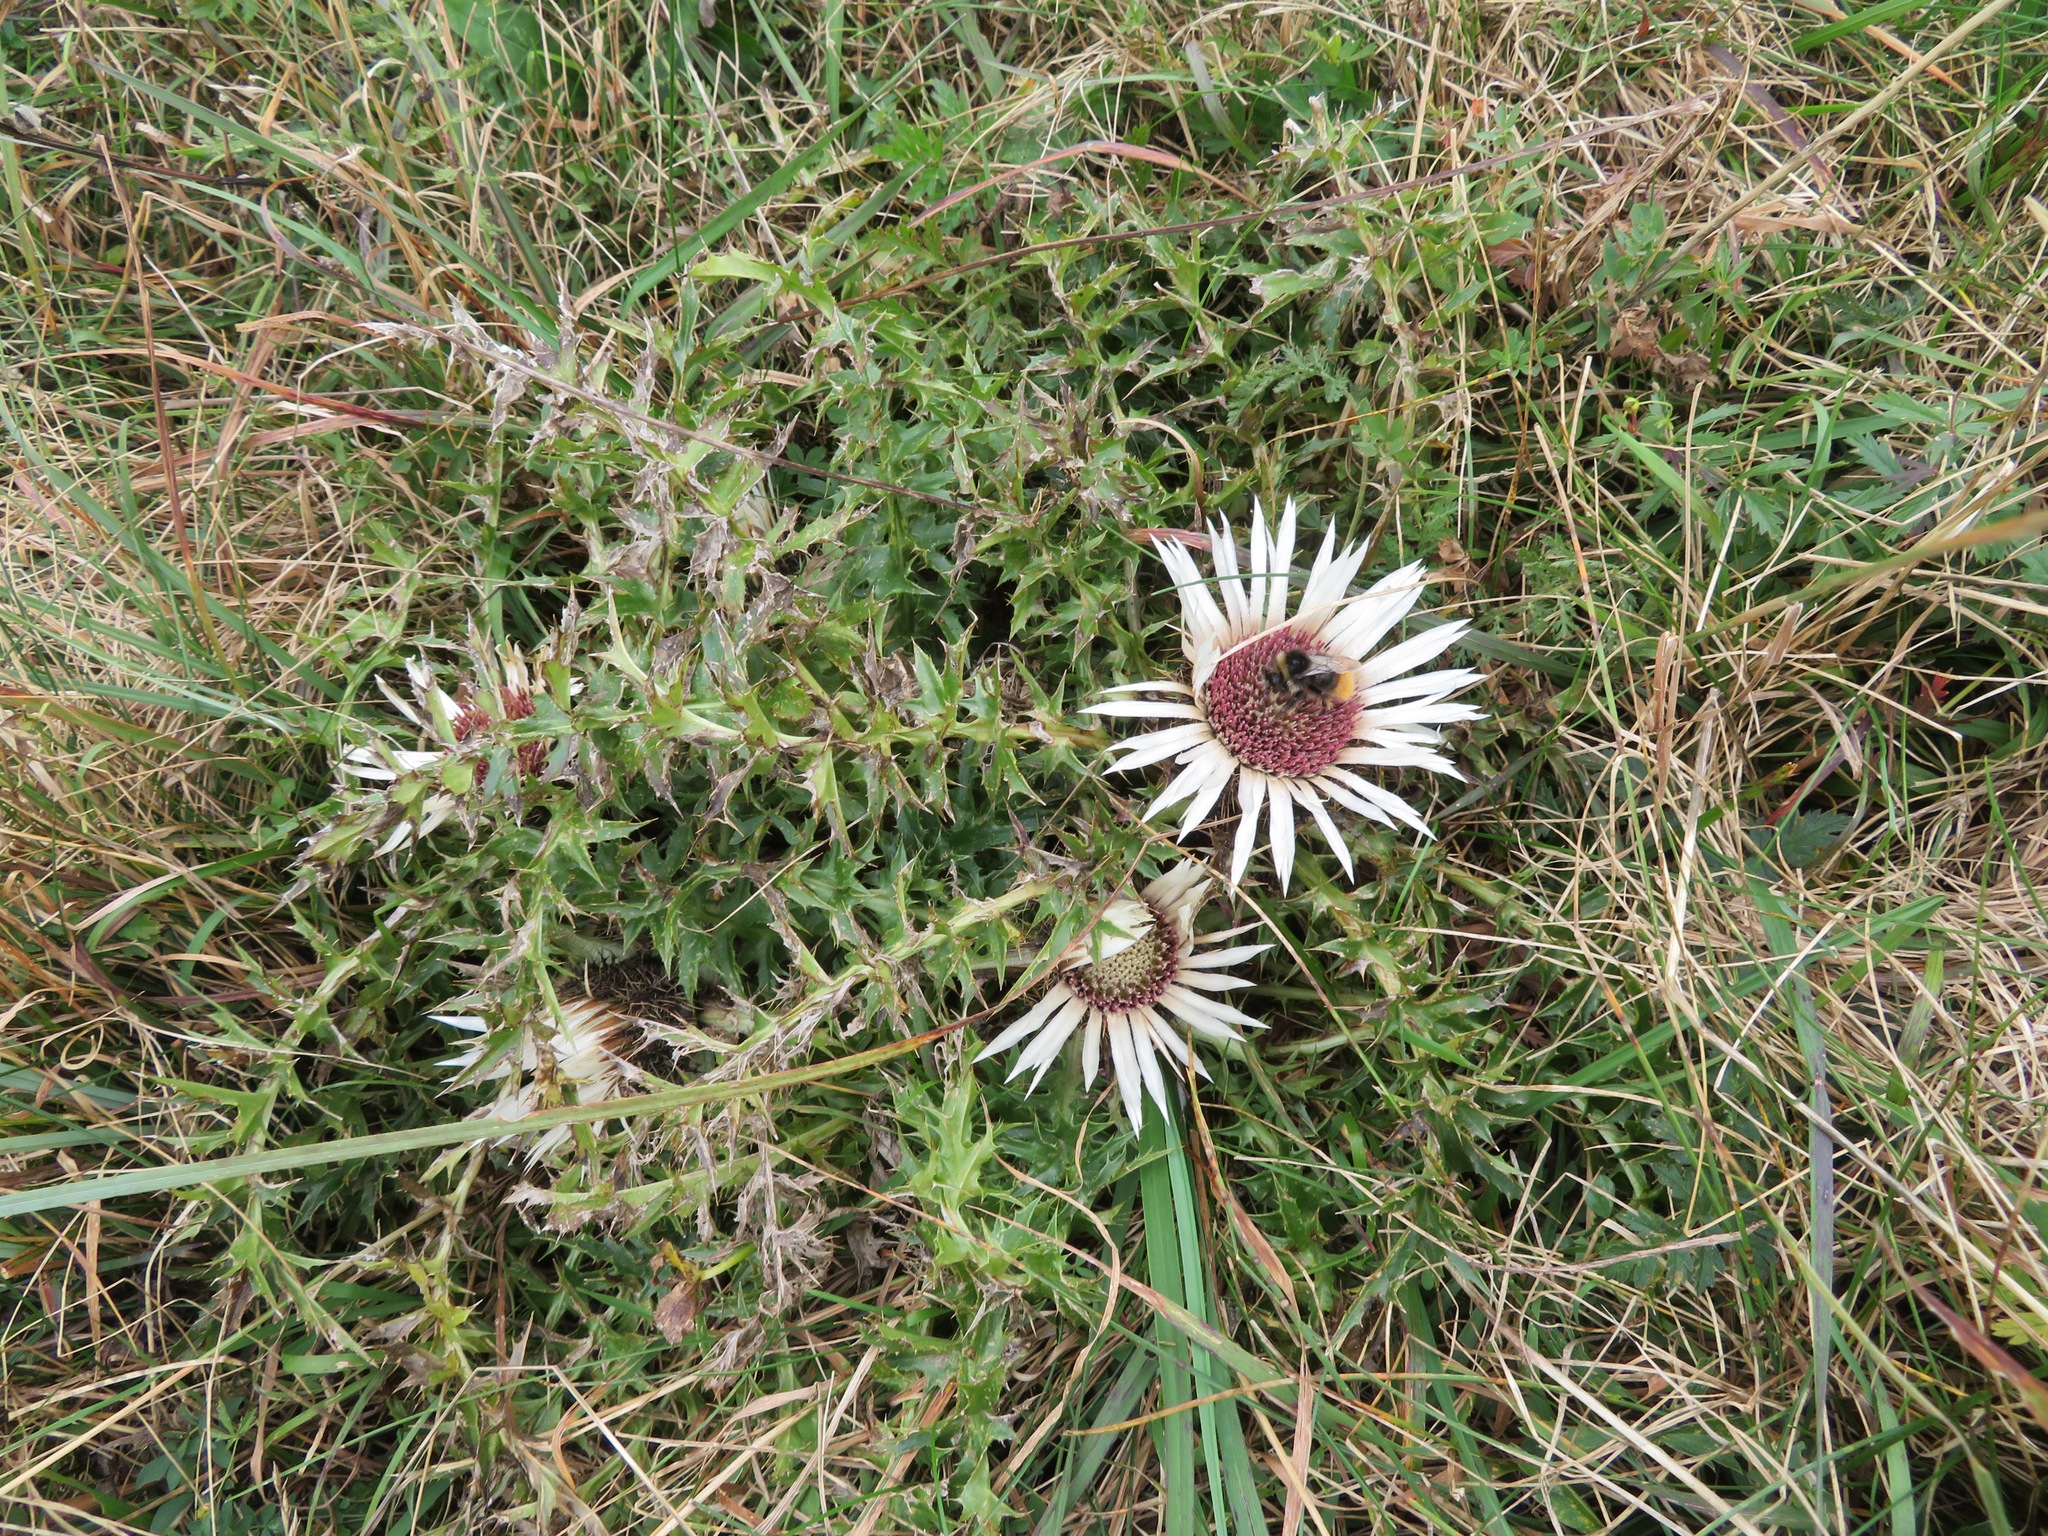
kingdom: Plantae
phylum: Tracheophyta
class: Magnoliopsida
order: Asterales
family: Asteraceae
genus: Carlina
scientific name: Carlina acaulis
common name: Stemless carline thistle
